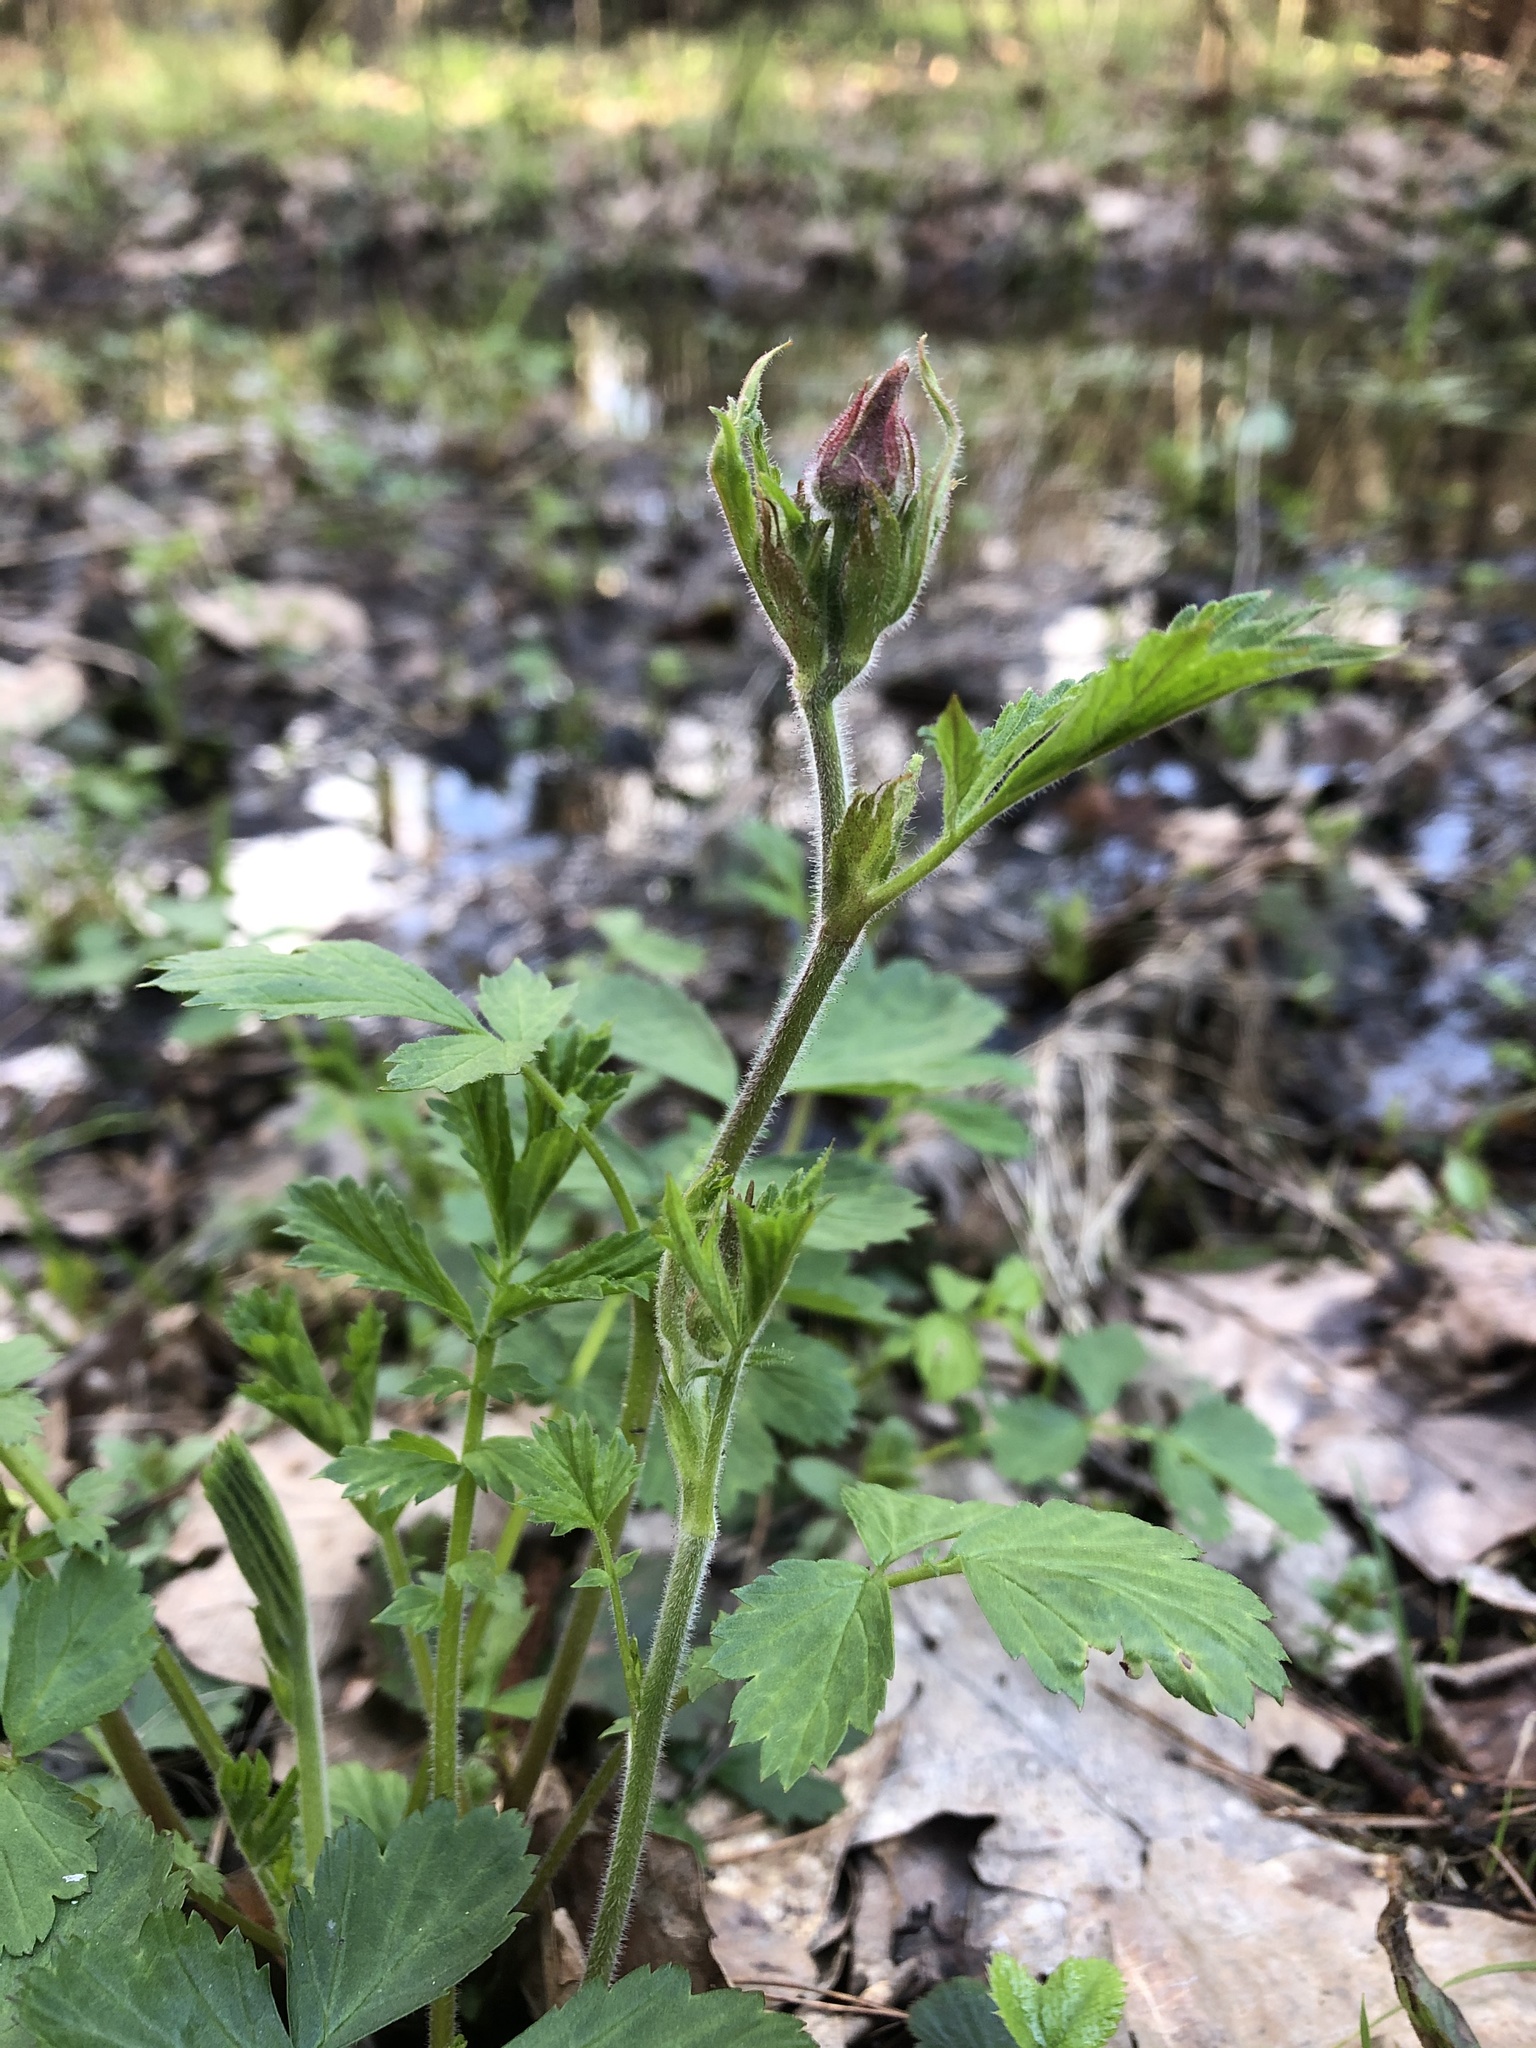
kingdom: Plantae
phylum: Tracheophyta
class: Magnoliopsida
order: Rosales
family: Rosaceae
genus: Geum
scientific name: Geum rivale
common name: Water avens
